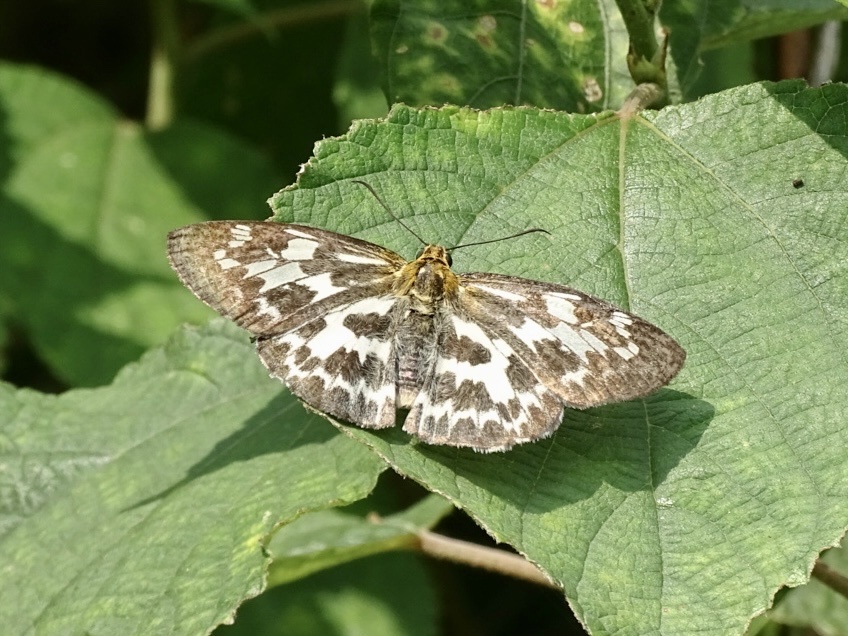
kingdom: Animalia
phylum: Arthropoda
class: Insecta
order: Lepidoptera
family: Hesperiidae
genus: Abraximorpha
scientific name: Abraximorpha davidii
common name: Magpie flat
